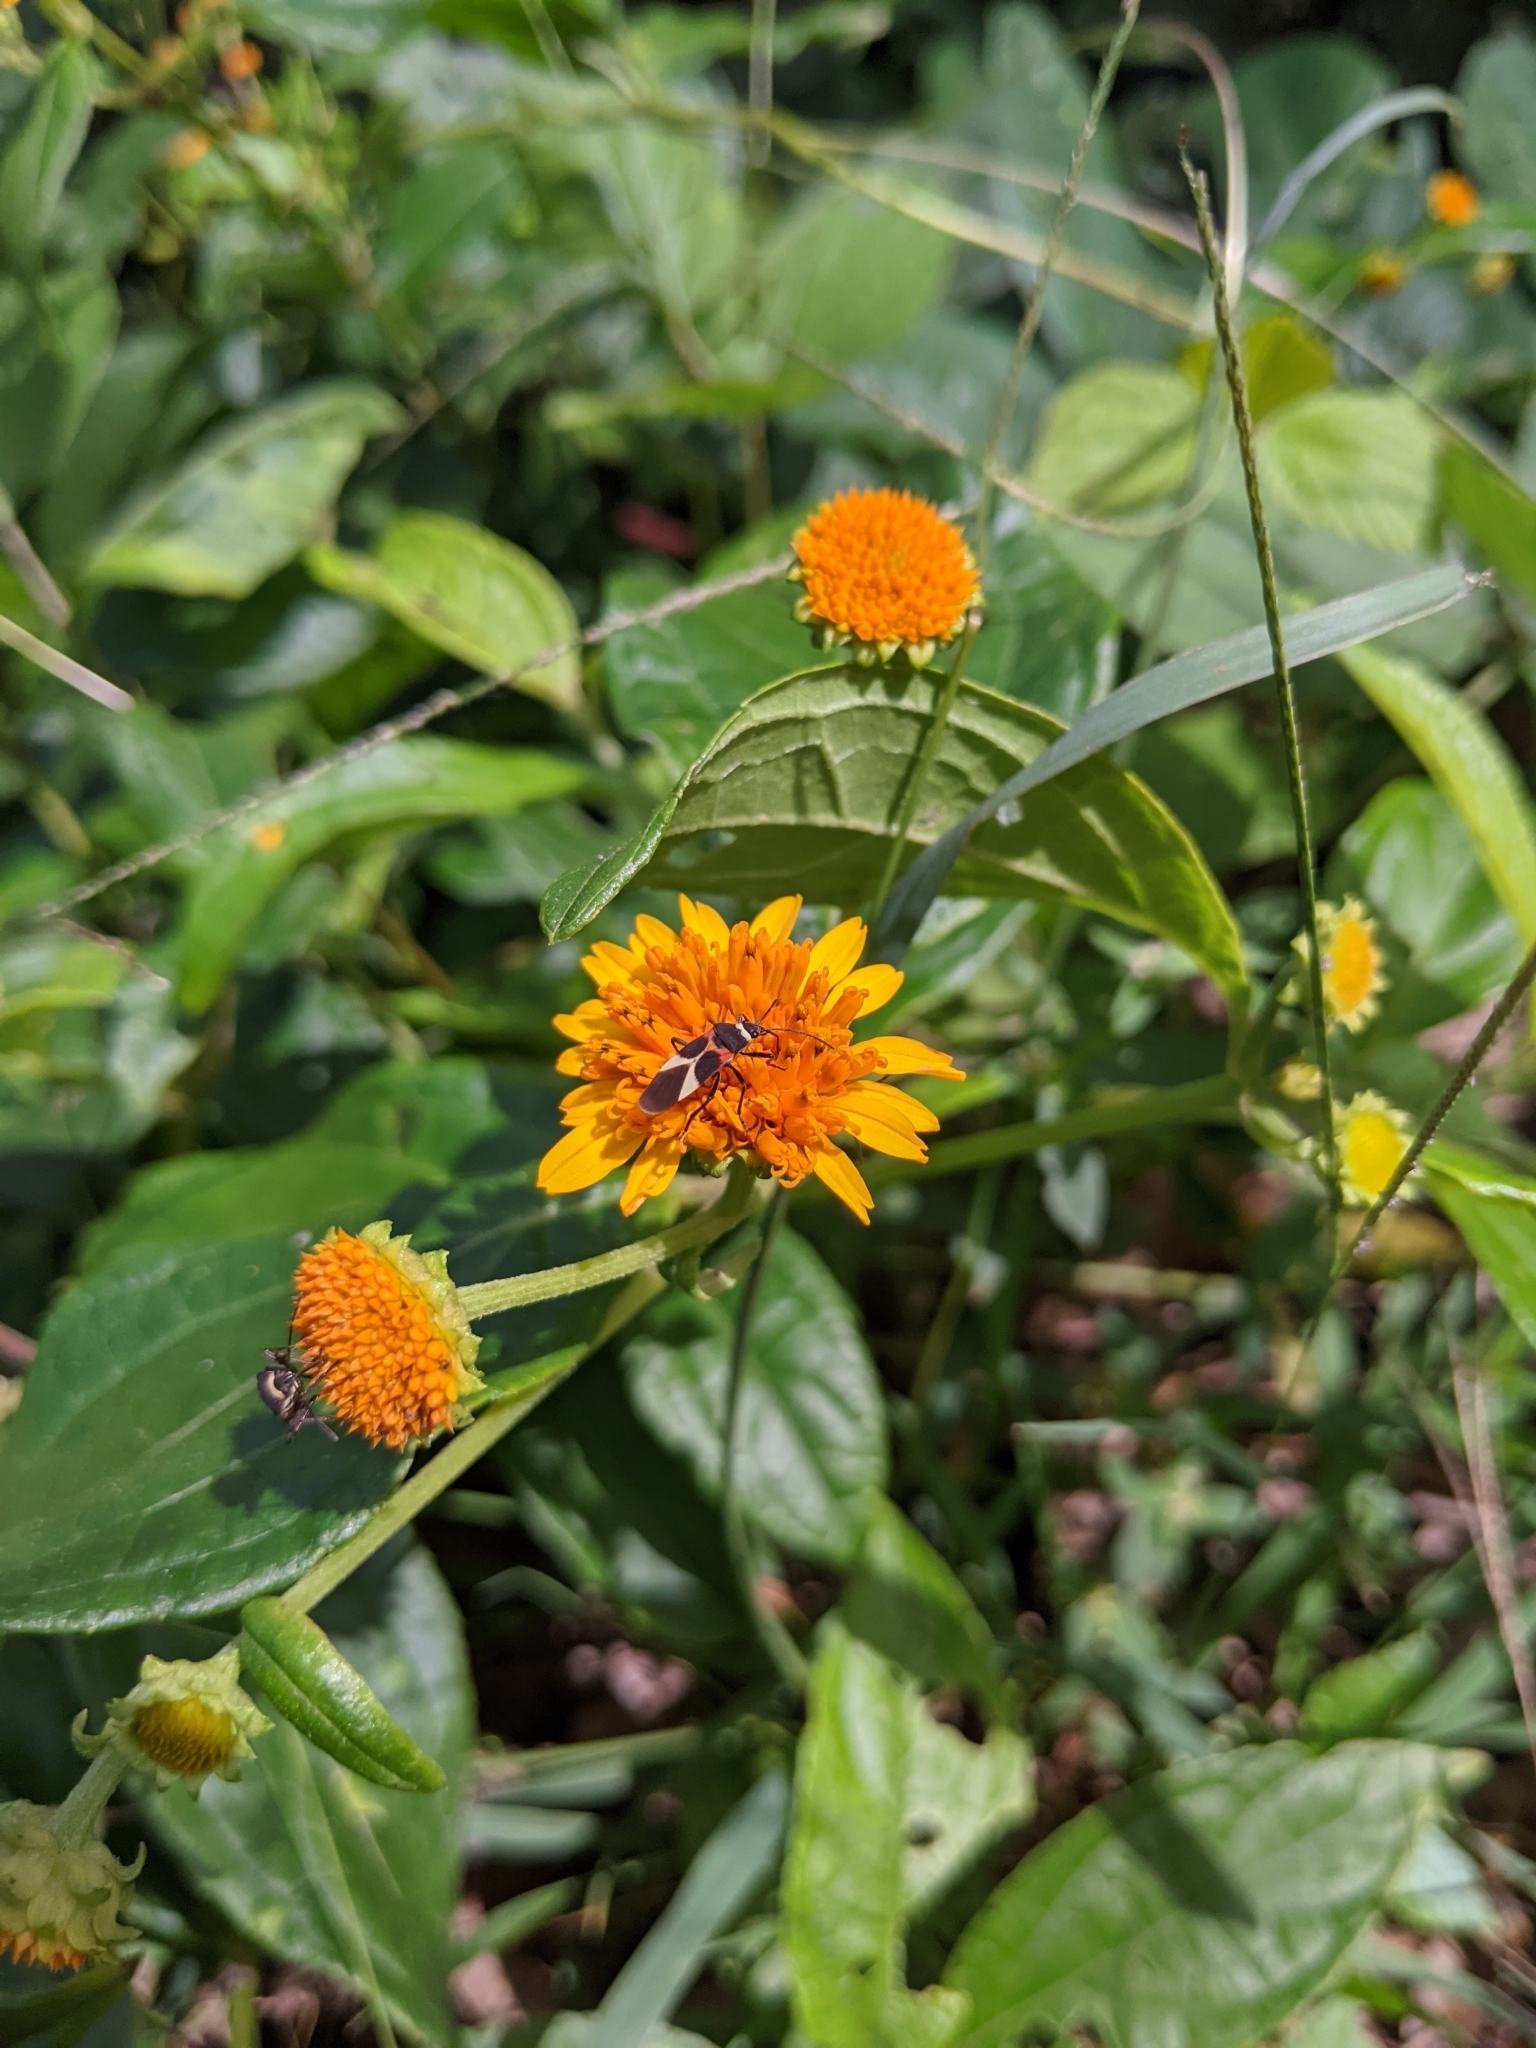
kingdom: Animalia
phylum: Arthropoda
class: Insecta
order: Hemiptera
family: Lygaeidae
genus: Craspeduchus
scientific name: Craspeduchus variegatus
